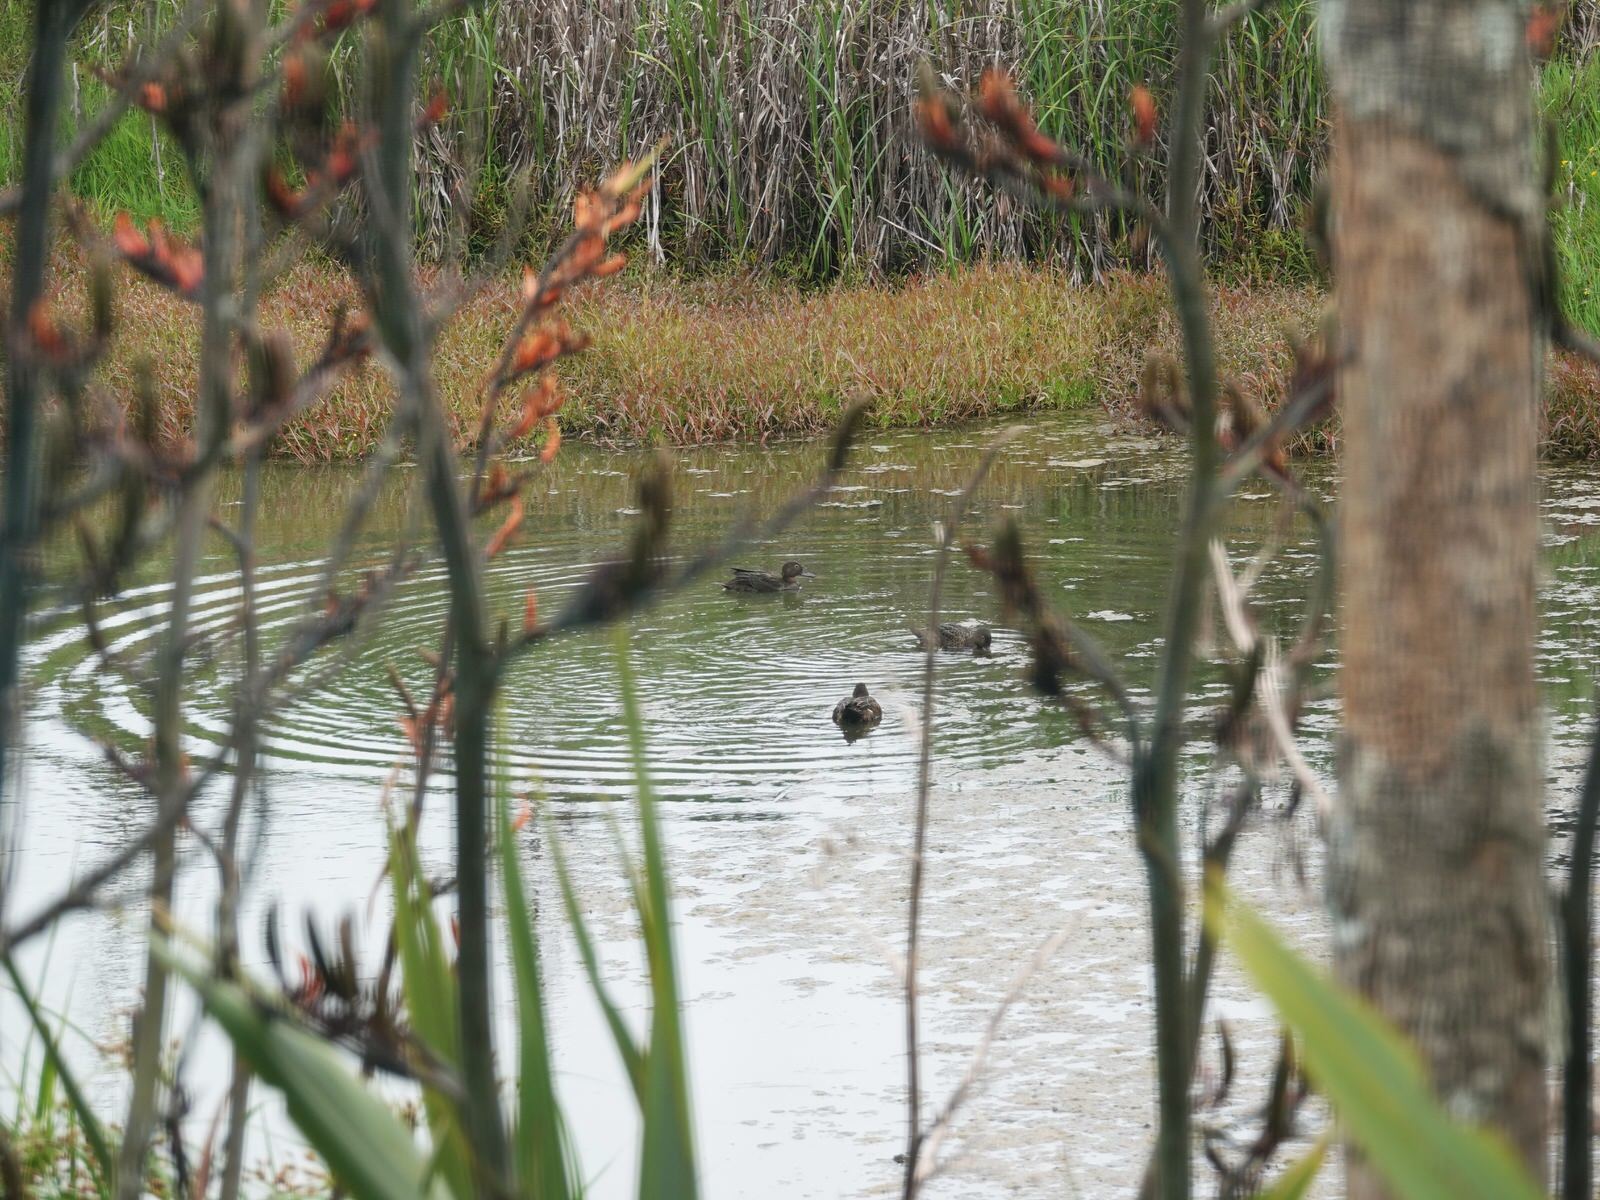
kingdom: Animalia
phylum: Chordata
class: Aves
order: Anseriformes
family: Anatidae
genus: Anas
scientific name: Anas chlorotis
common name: Brown teal
